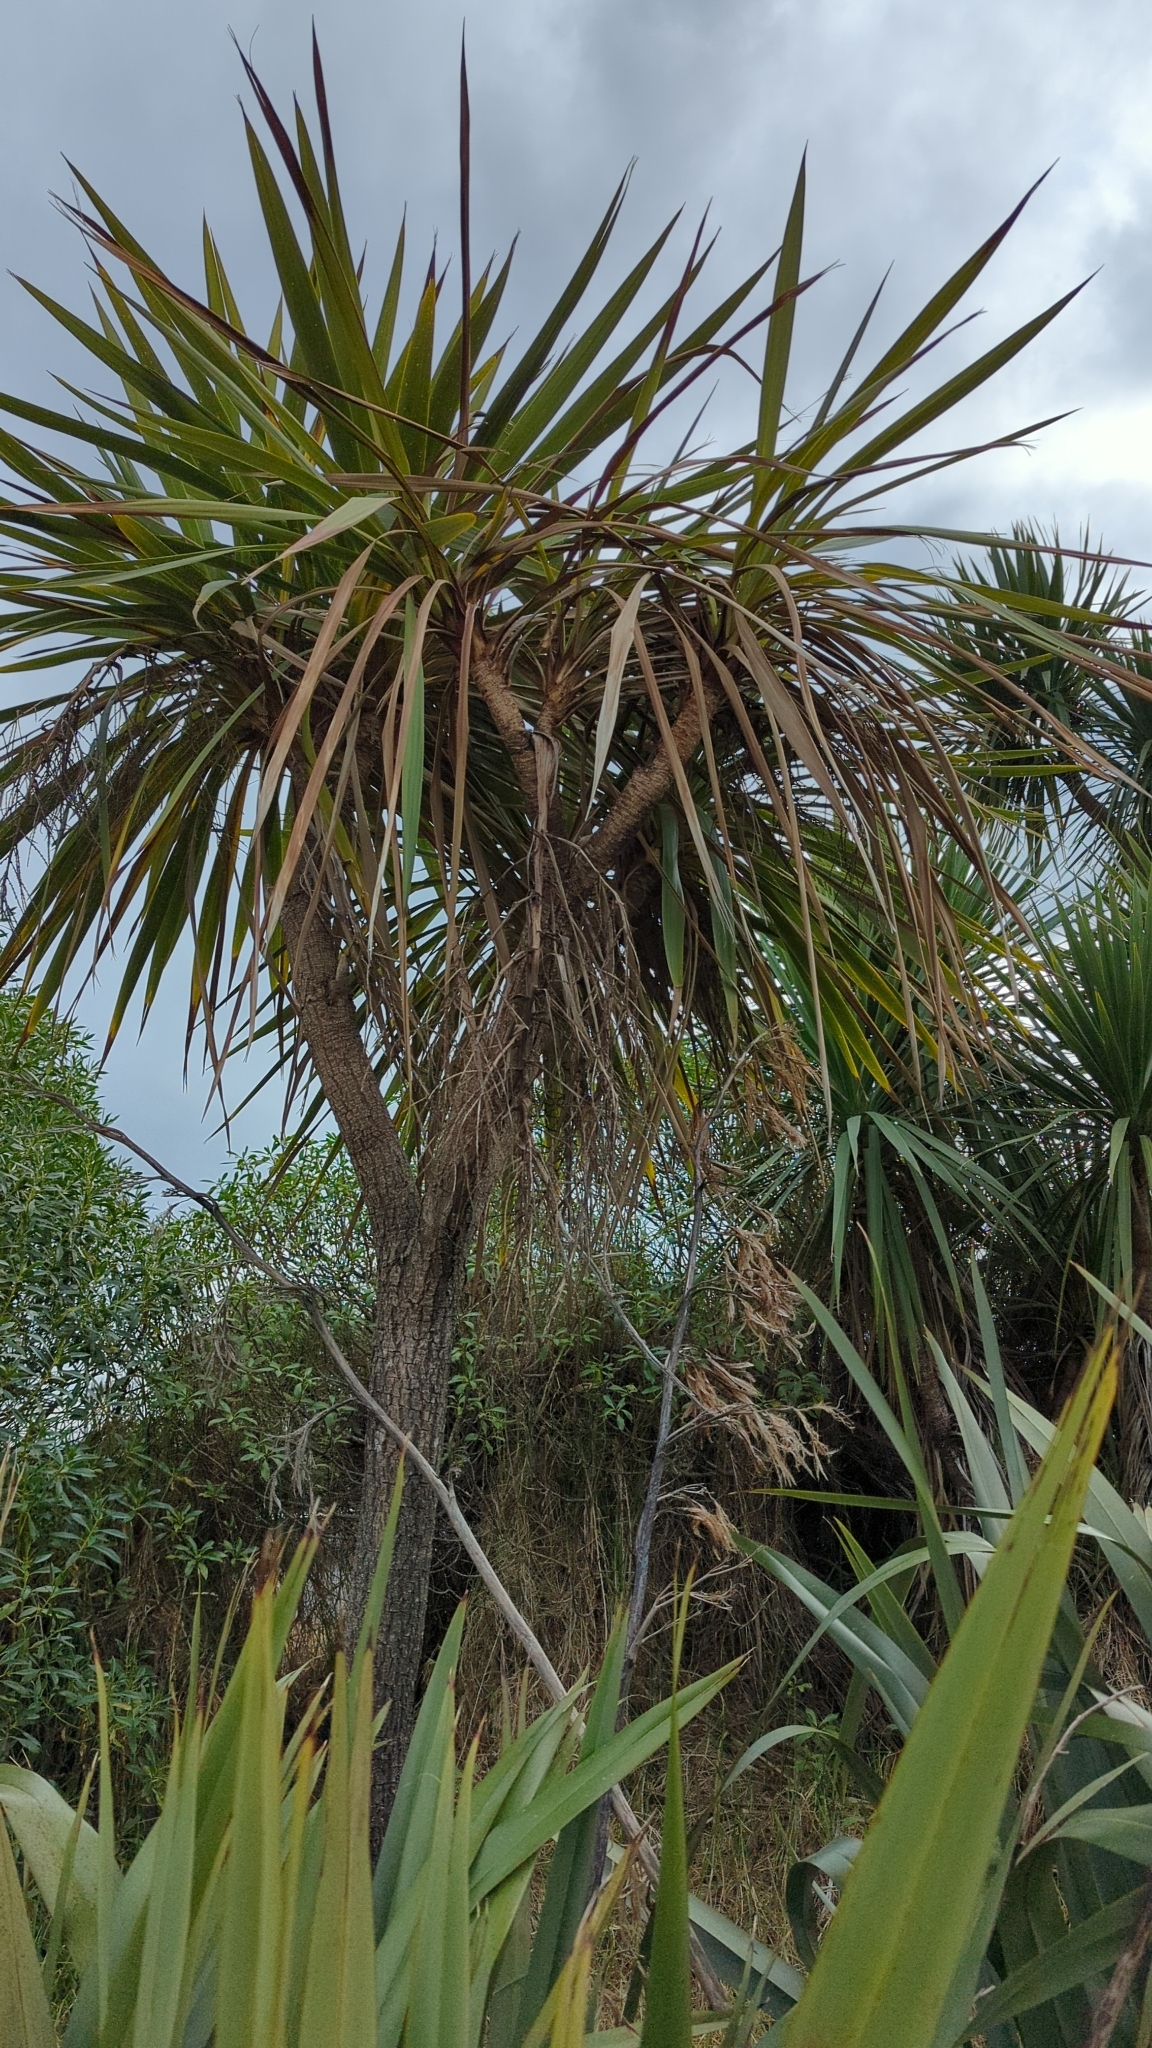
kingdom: Plantae
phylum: Tracheophyta
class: Liliopsida
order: Asparagales
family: Asparagaceae
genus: Cordyline
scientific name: Cordyline australis
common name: Cabbage-palm
